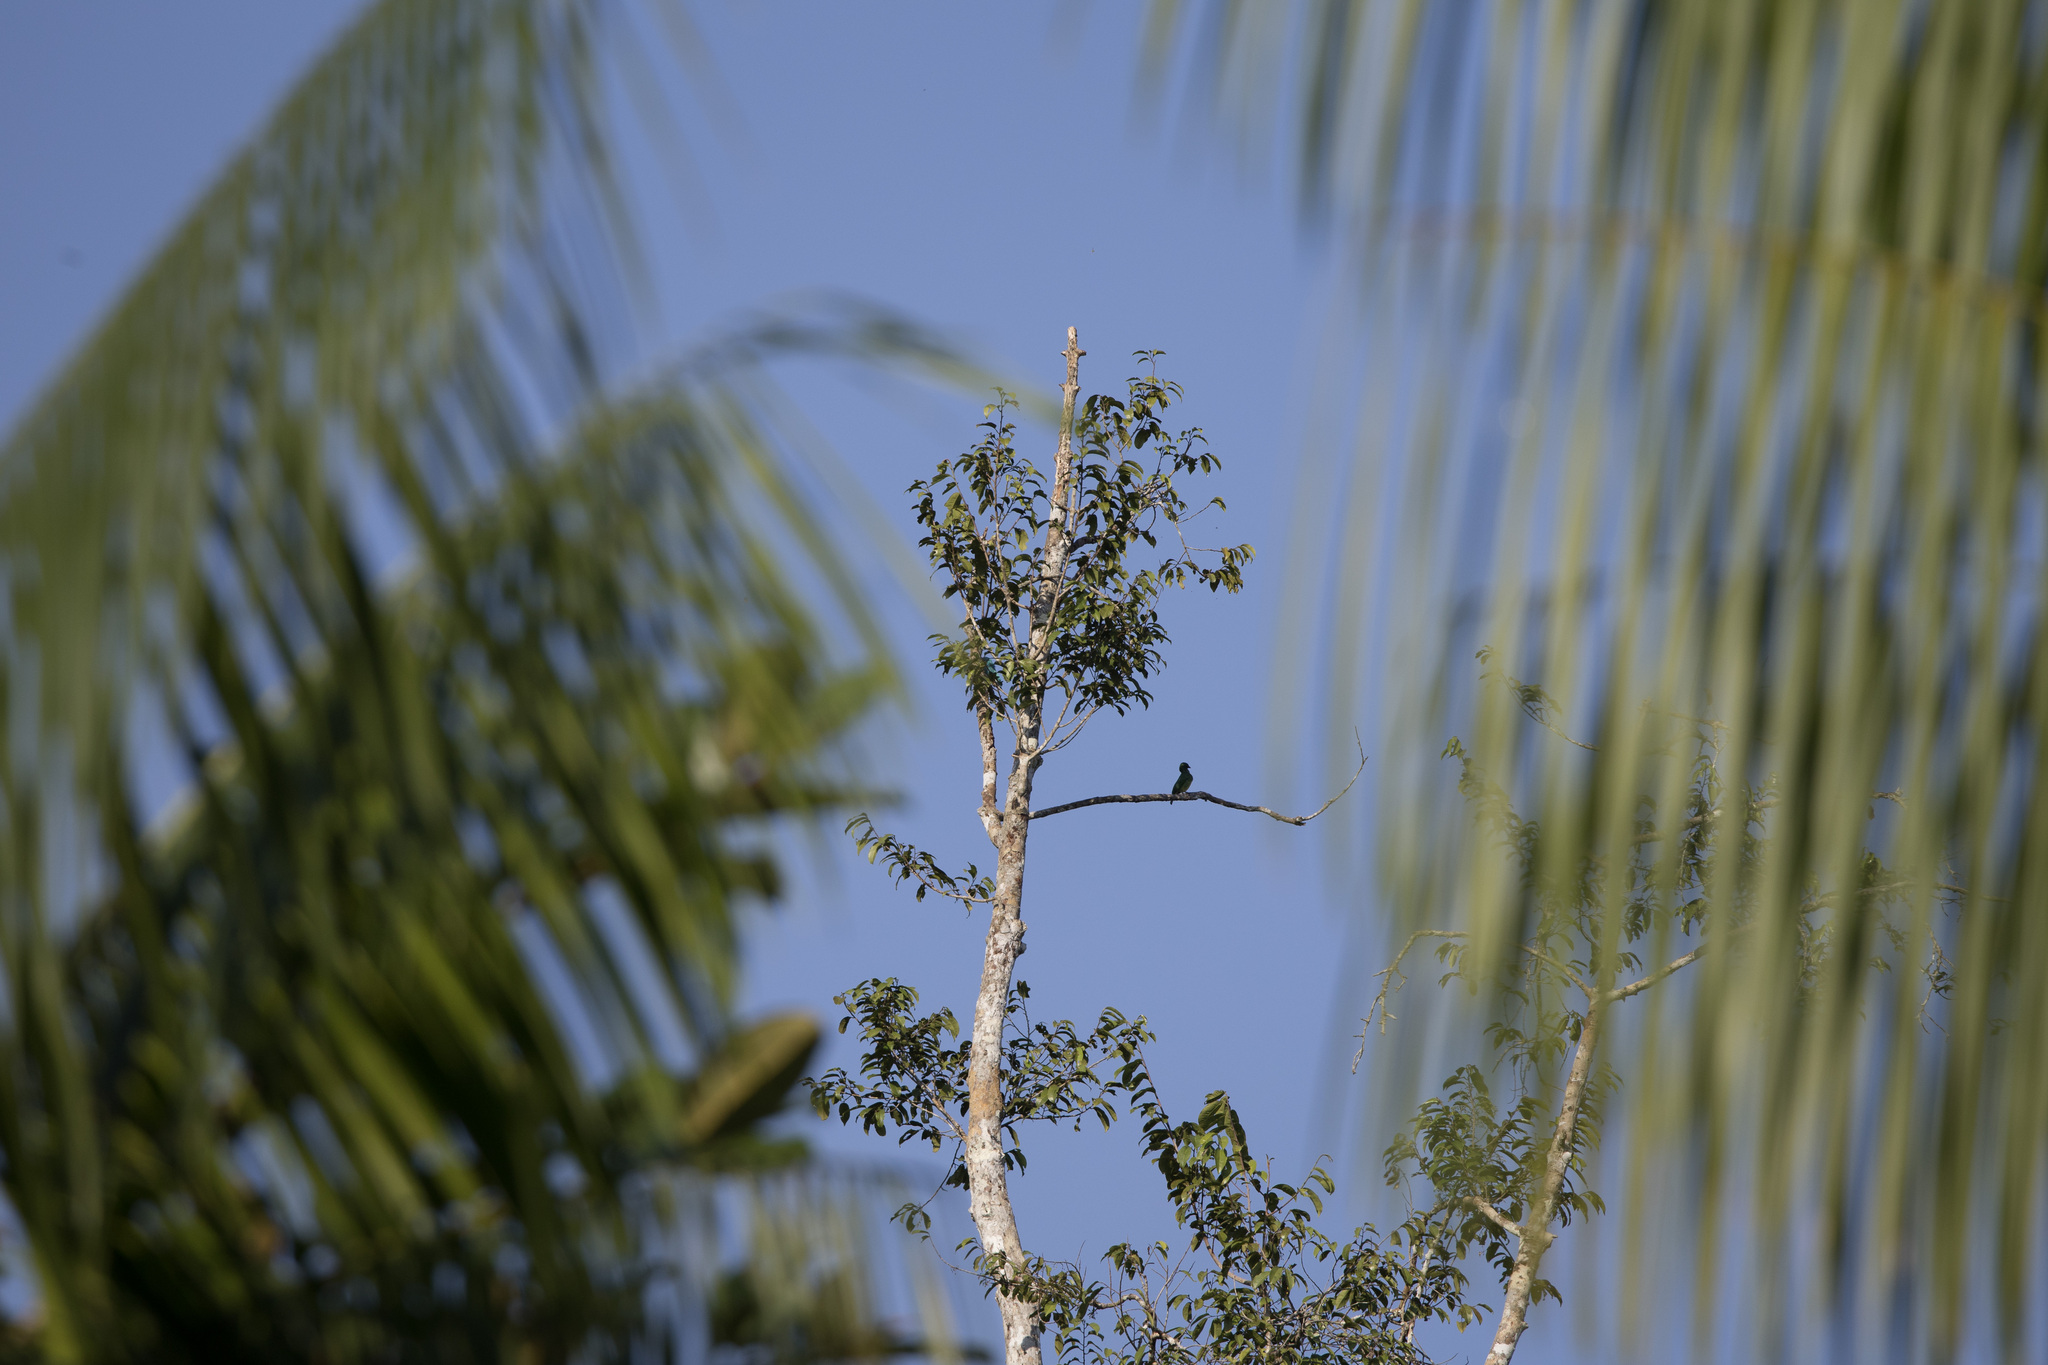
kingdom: Animalia
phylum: Chordata
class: Aves
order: Passeriformes
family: Thraupidae
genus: Tersina
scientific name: Tersina viridis
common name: Swallow tanager
